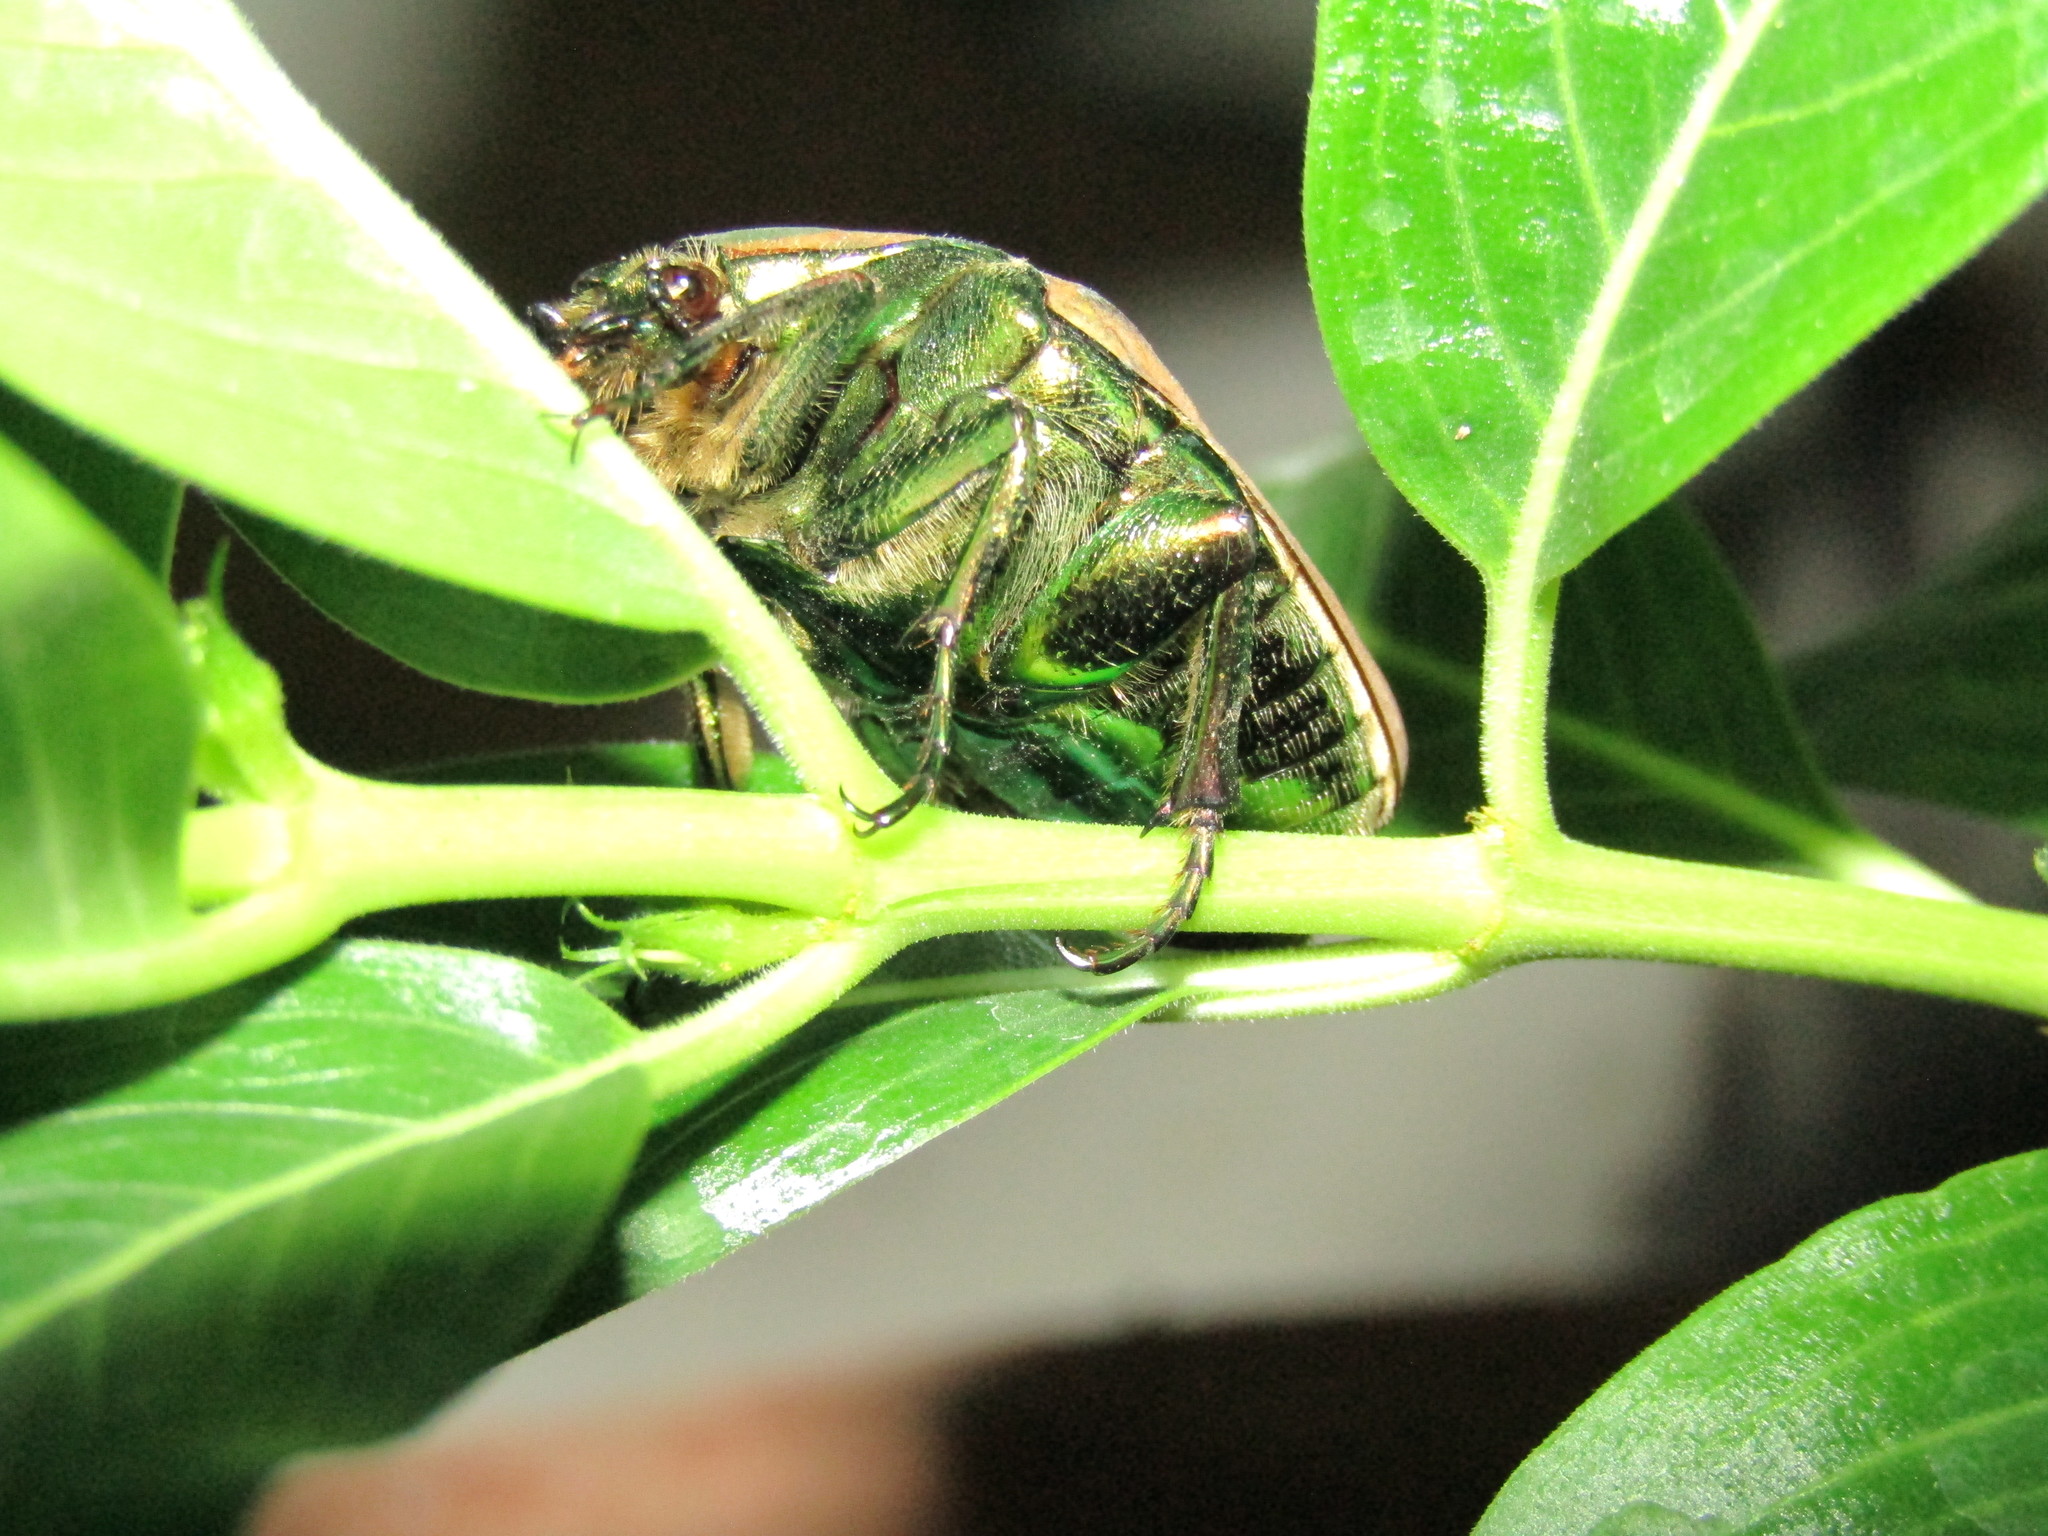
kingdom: Animalia
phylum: Arthropoda
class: Insecta
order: Coleoptera
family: Scarabaeidae
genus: Cotinis
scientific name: Cotinis mutabilis
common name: Figeater beetle
